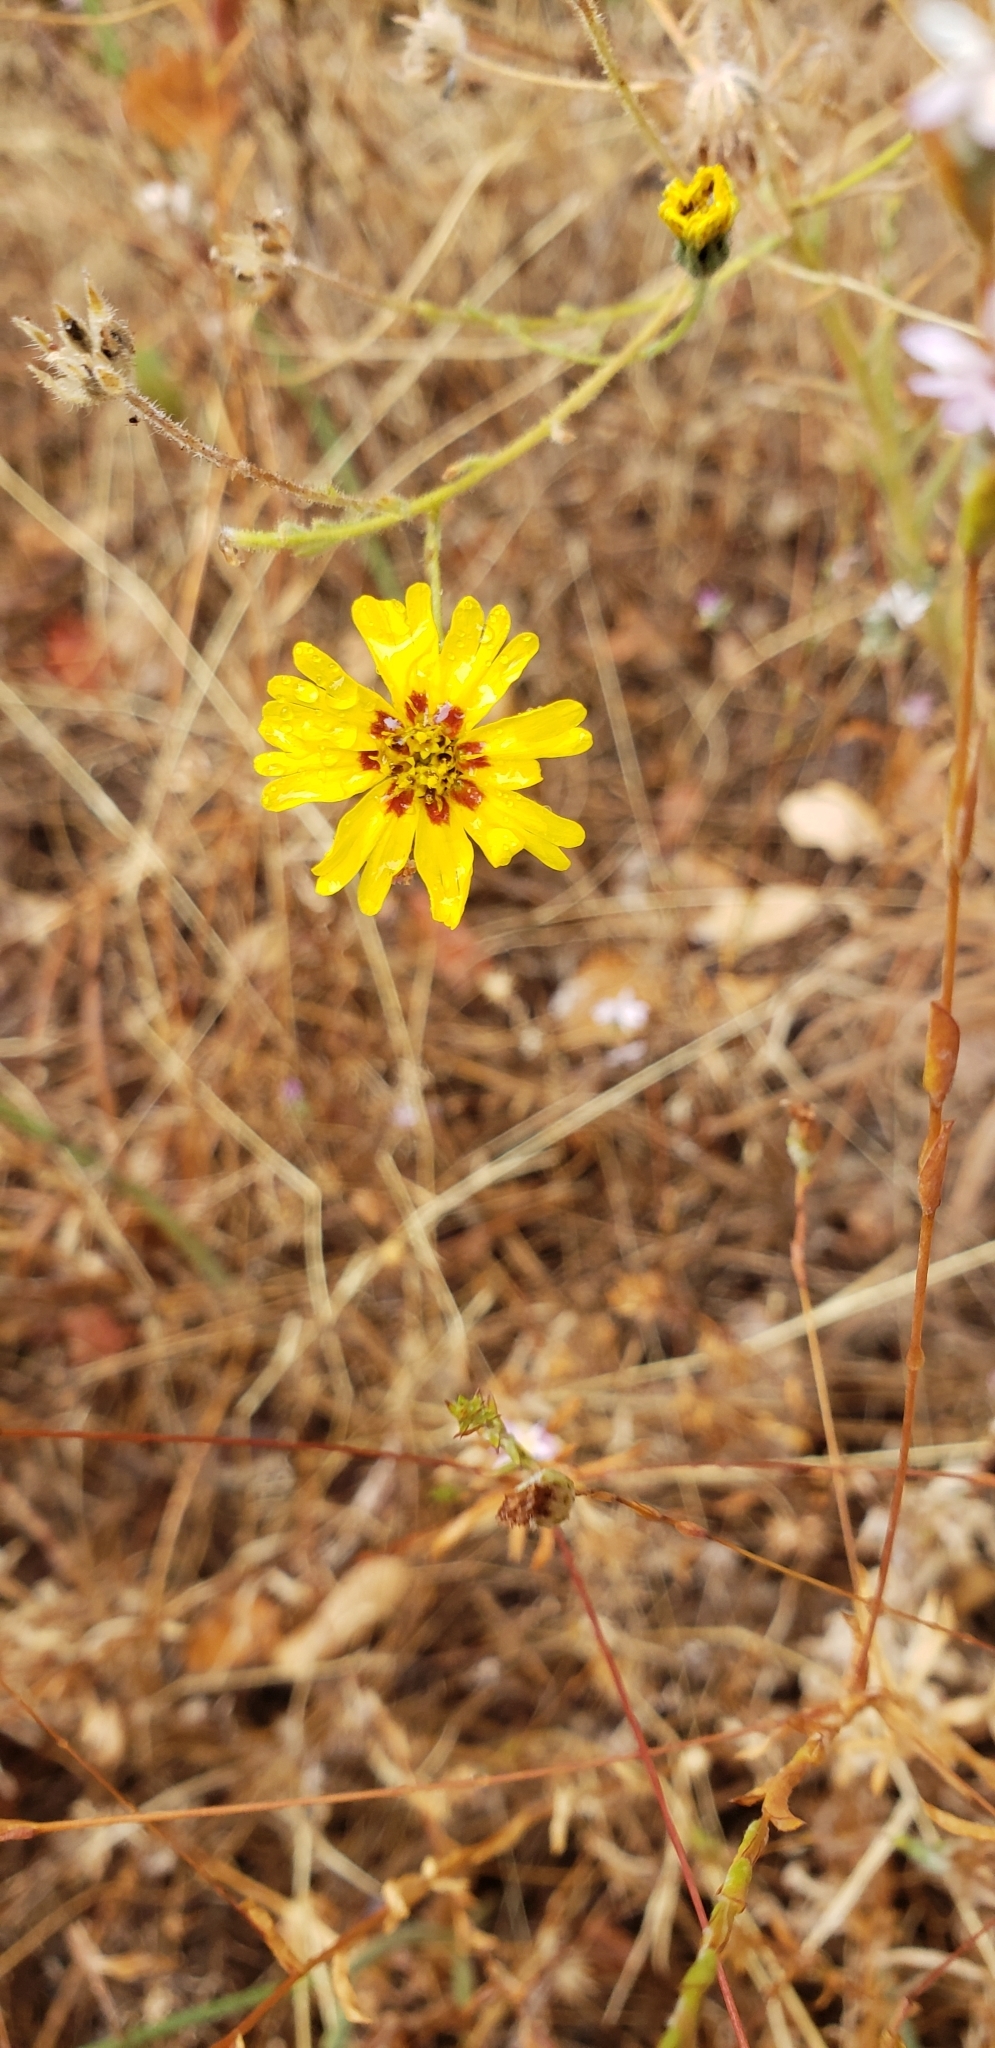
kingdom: Plantae
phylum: Tracheophyta
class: Magnoliopsida
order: Asterales
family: Asteraceae
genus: Madia
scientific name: Madia elegans
